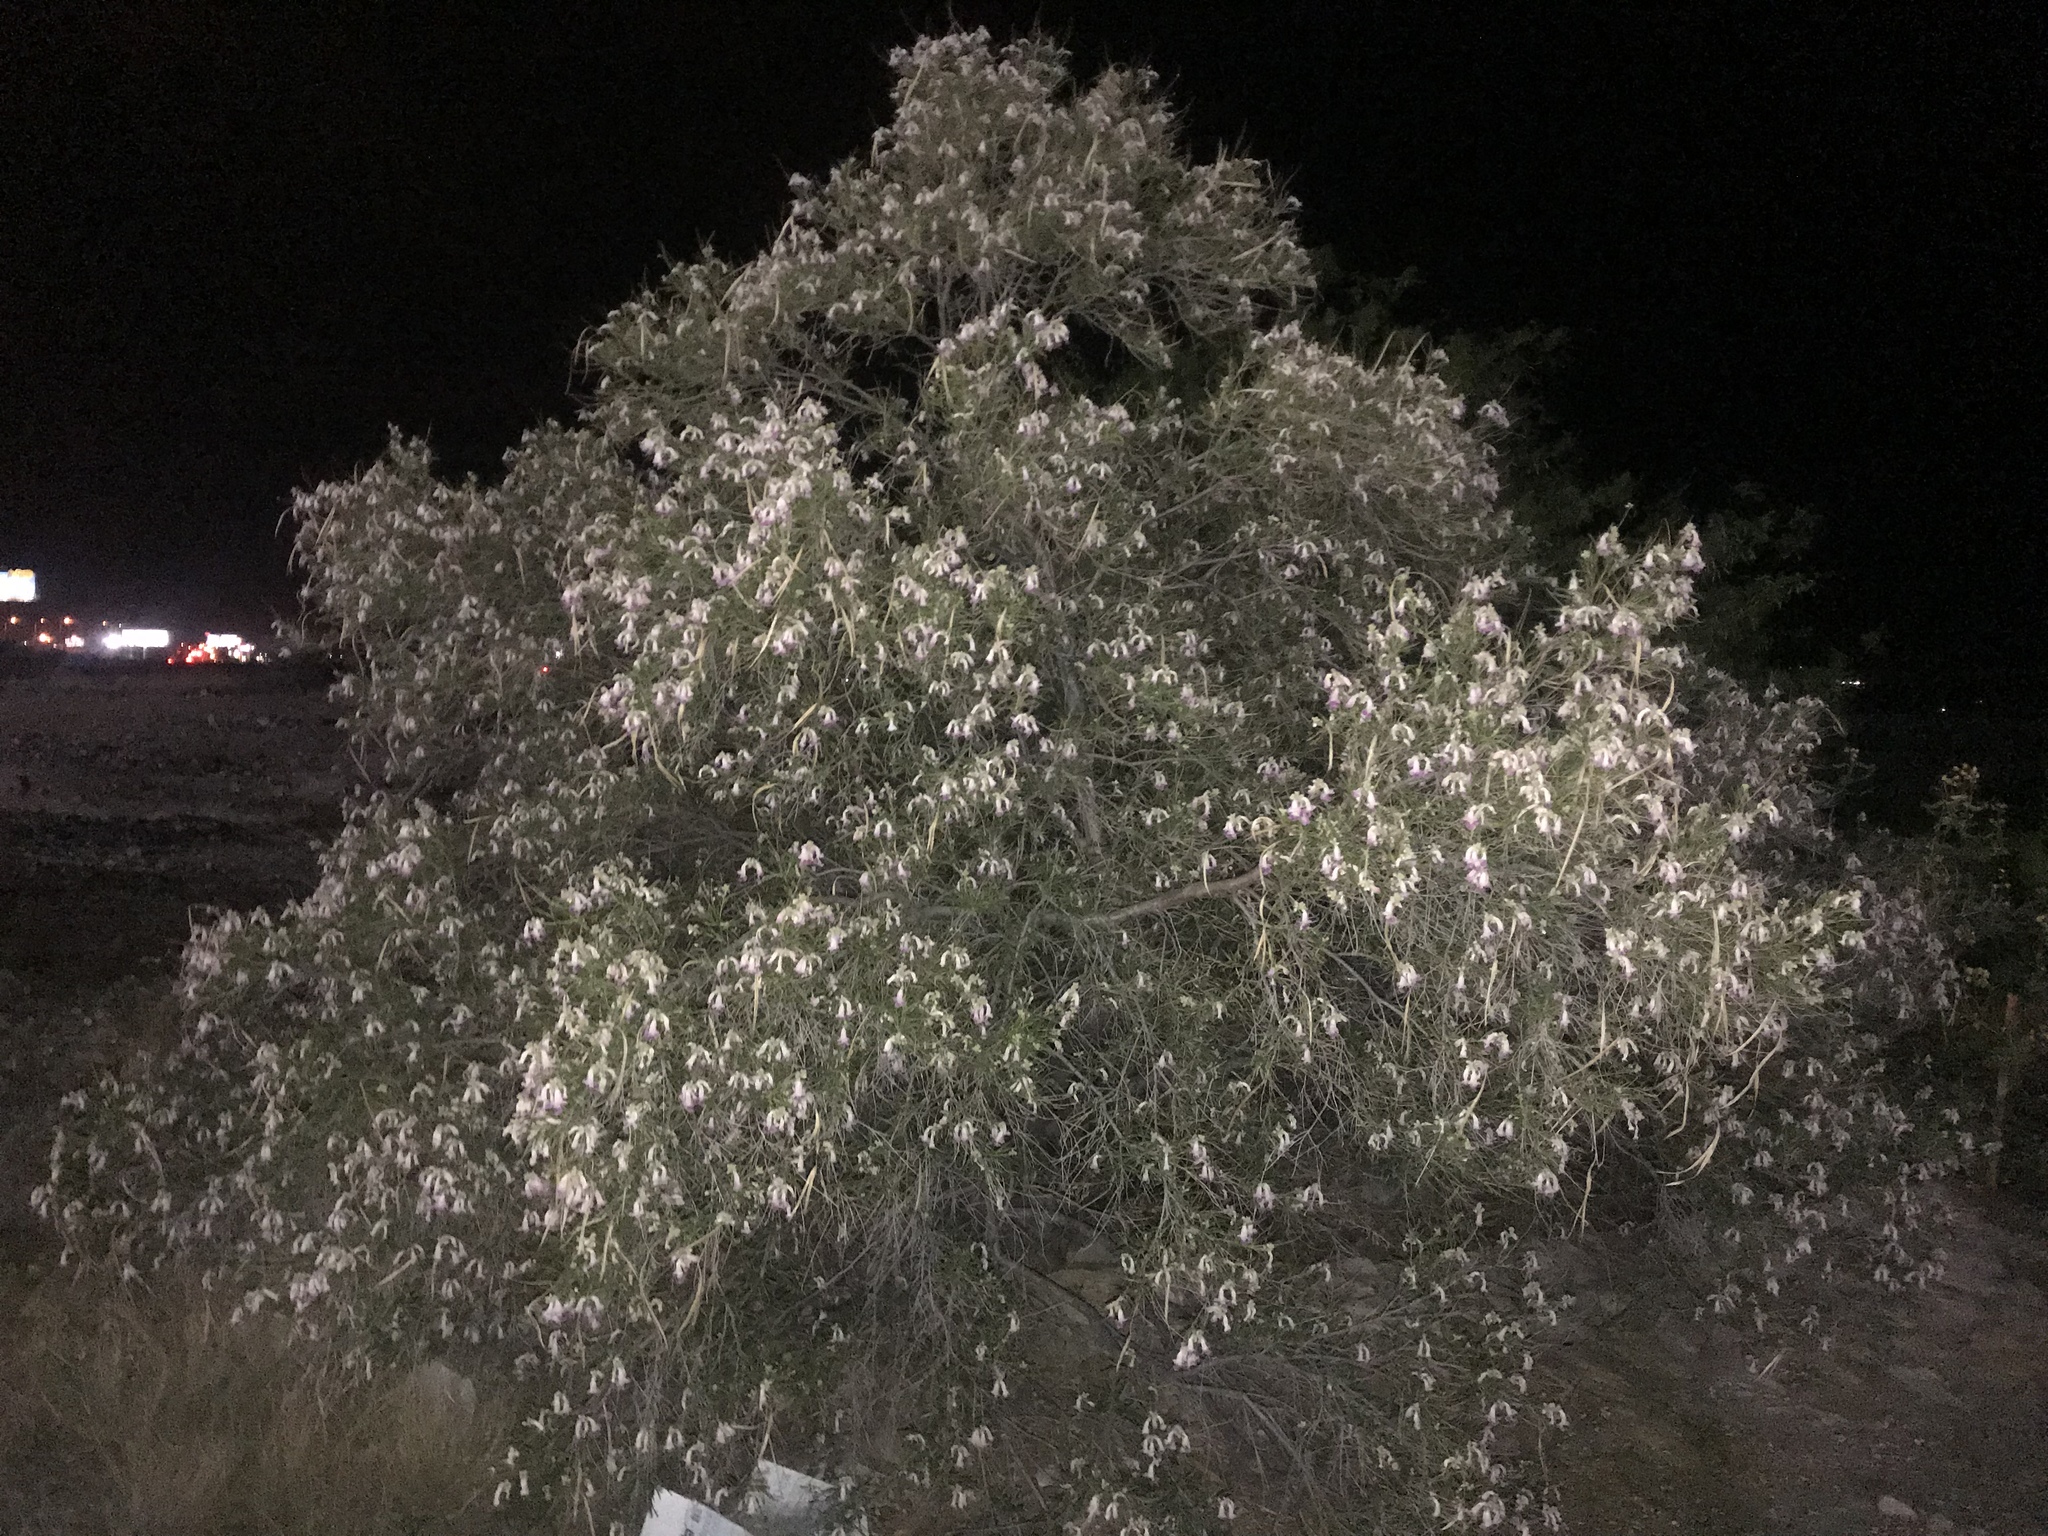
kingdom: Plantae
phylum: Tracheophyta
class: Magnoliopsida
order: Lamiales
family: Bignoniaceae
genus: Chilopsis
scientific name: Chilopsis linearis
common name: Desert-willow
